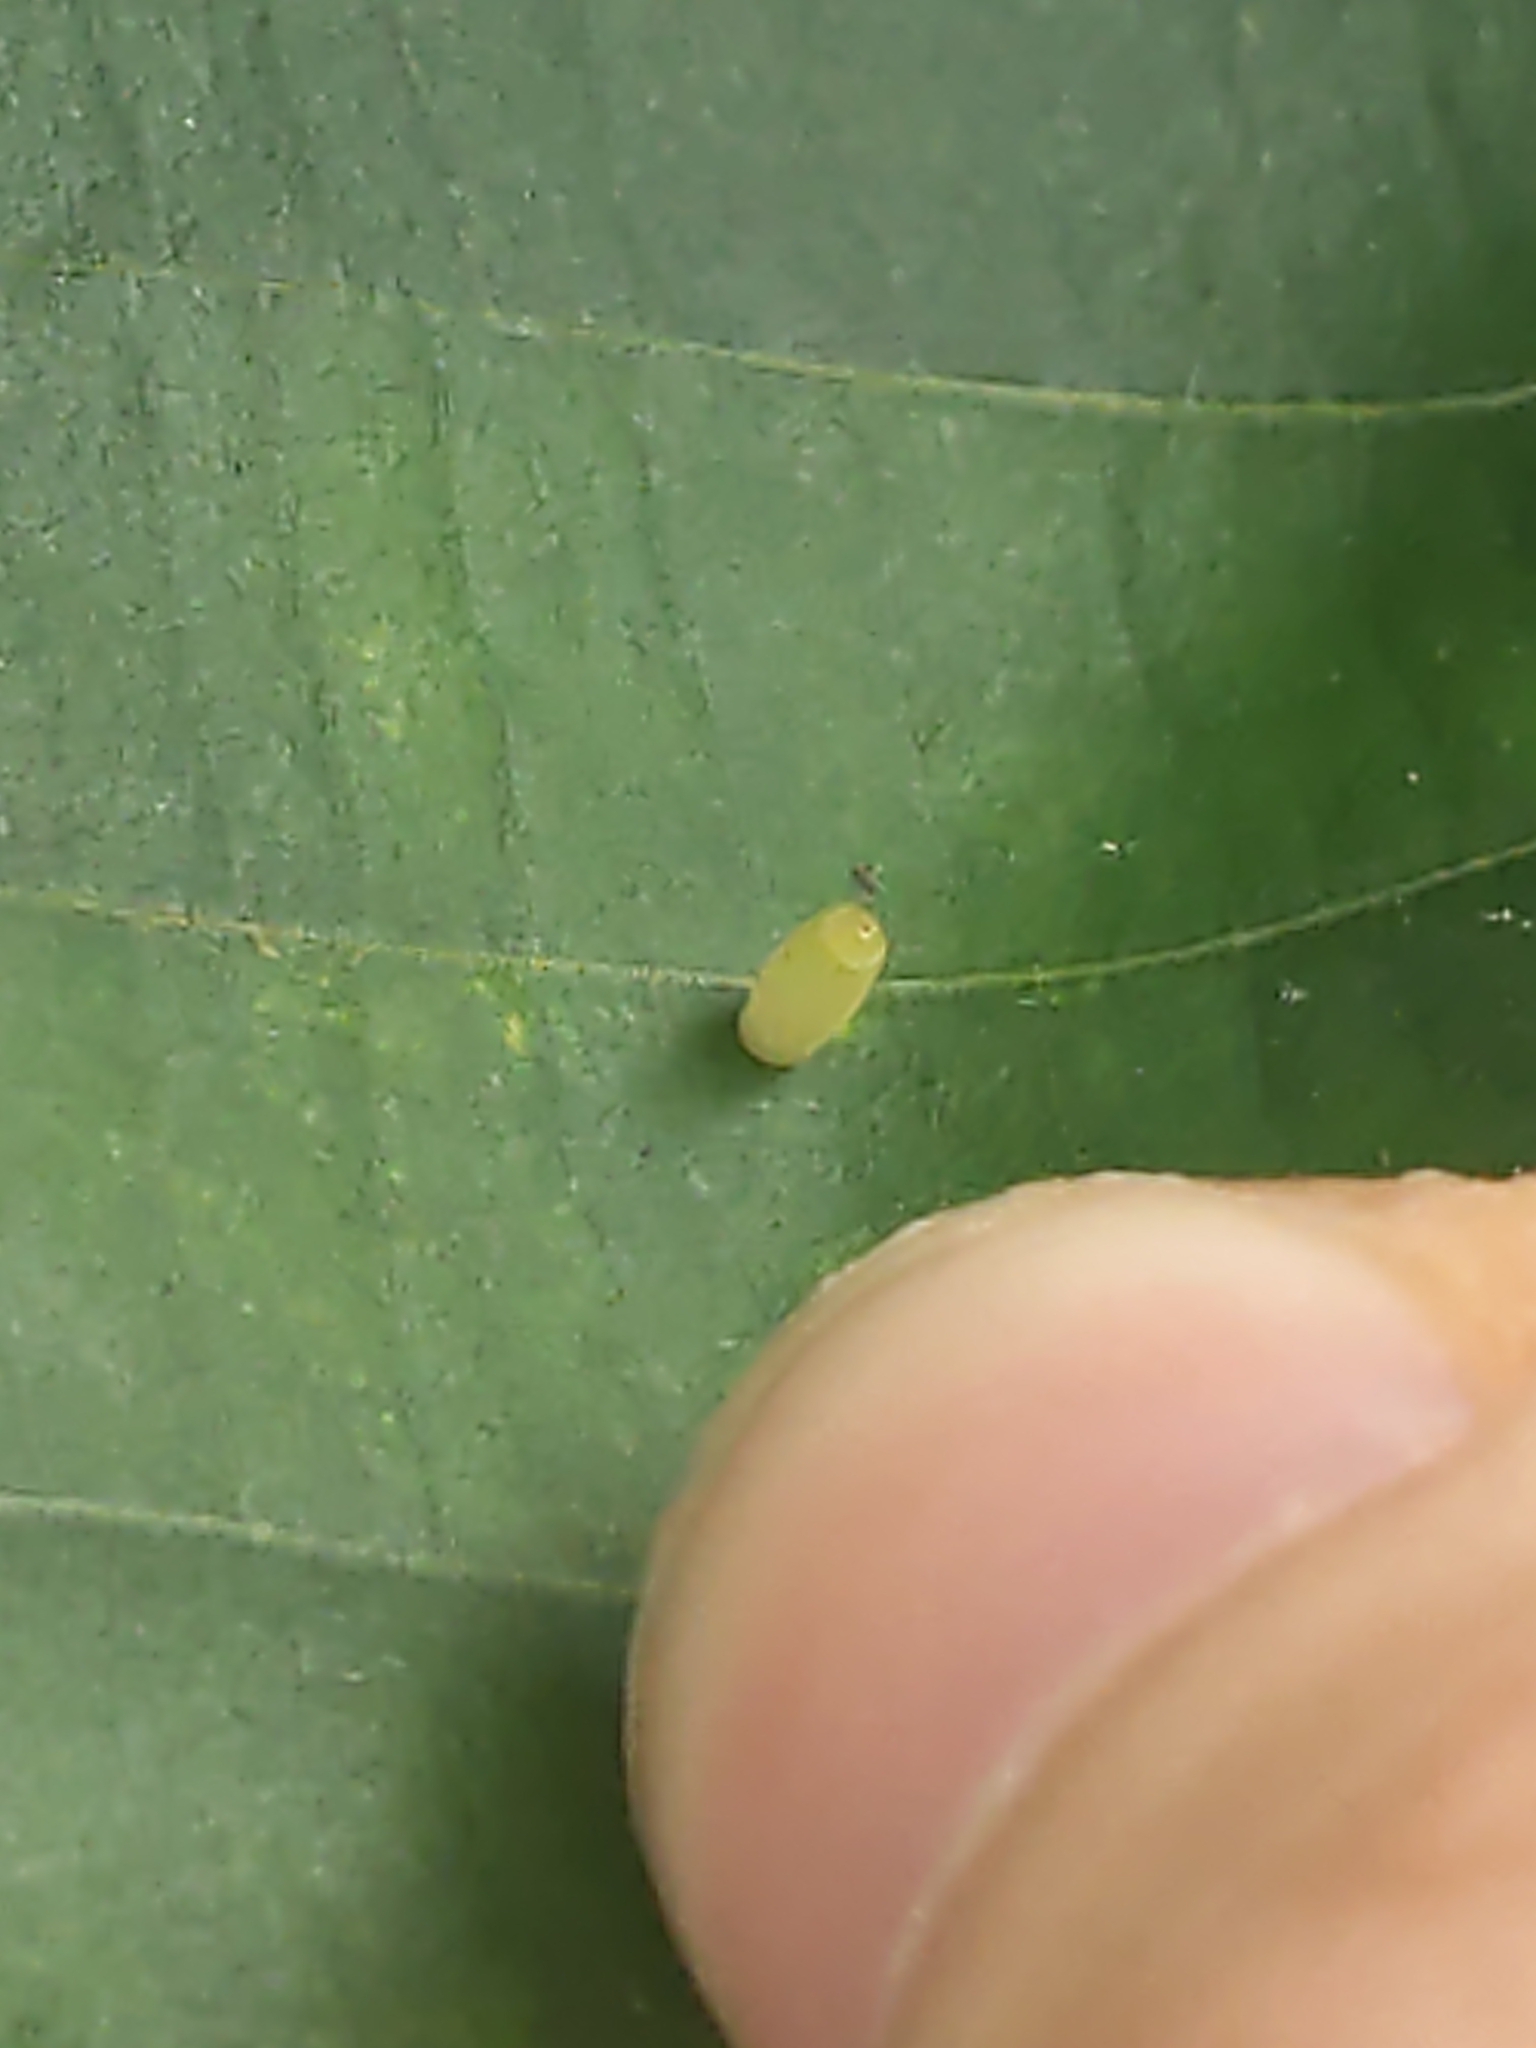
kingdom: Animalia
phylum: Arthropoda
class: Insecta
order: Diptera
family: Cecidomyiidae
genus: Caryomyia
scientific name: Caryomyia urnula
